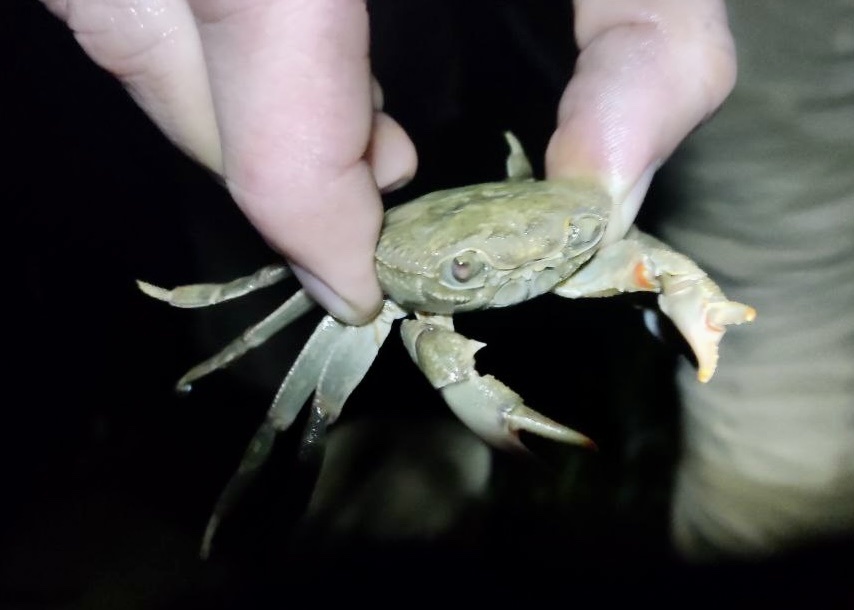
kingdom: Animalia
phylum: Arthropoda
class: Malacostraca
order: Decapoda
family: Potamidae
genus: Potamon
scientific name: Potamon ibericum
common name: Bieberstein's freshwater crab
